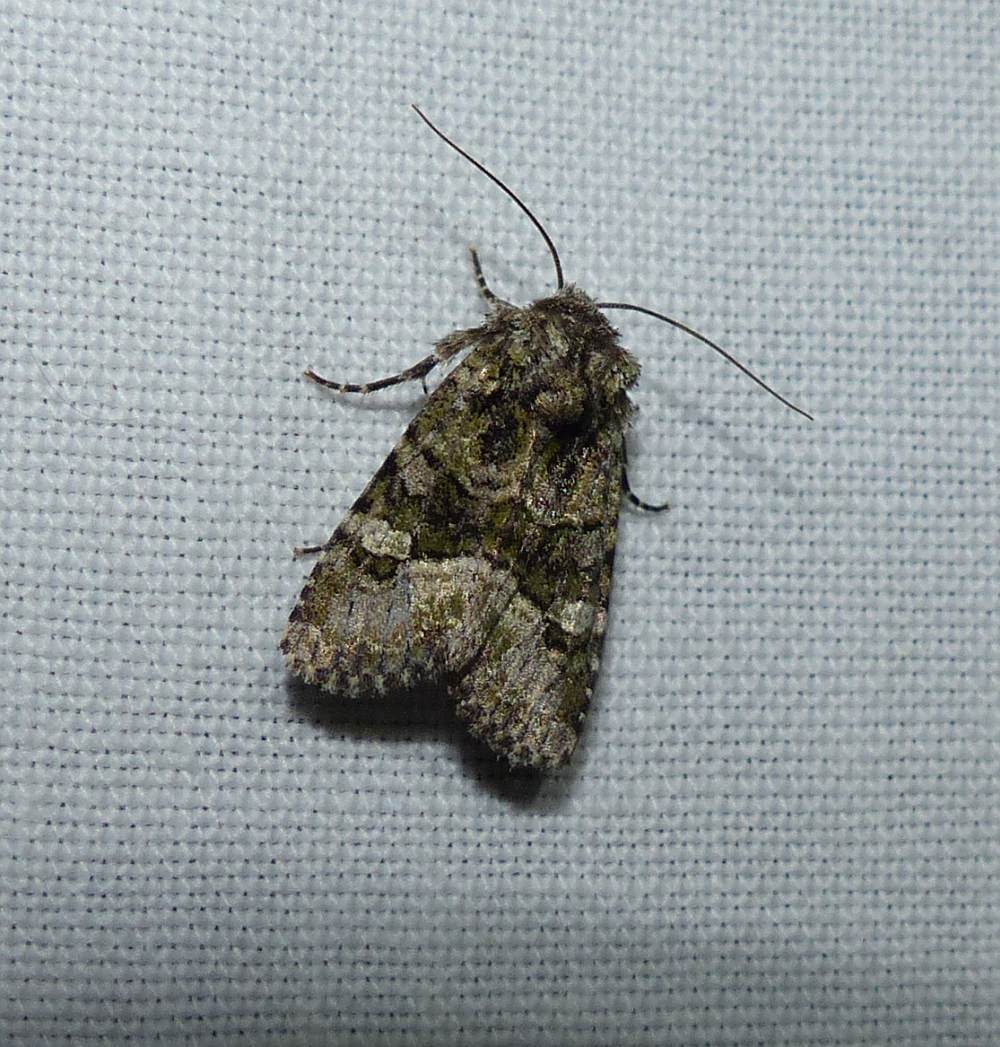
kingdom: Animalia
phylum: Arthropoda
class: Insecta
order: Lepidoptera
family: Noctuidae
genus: Lacinipolia
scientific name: Lacinipolia olivacea
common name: Olive arches moth
